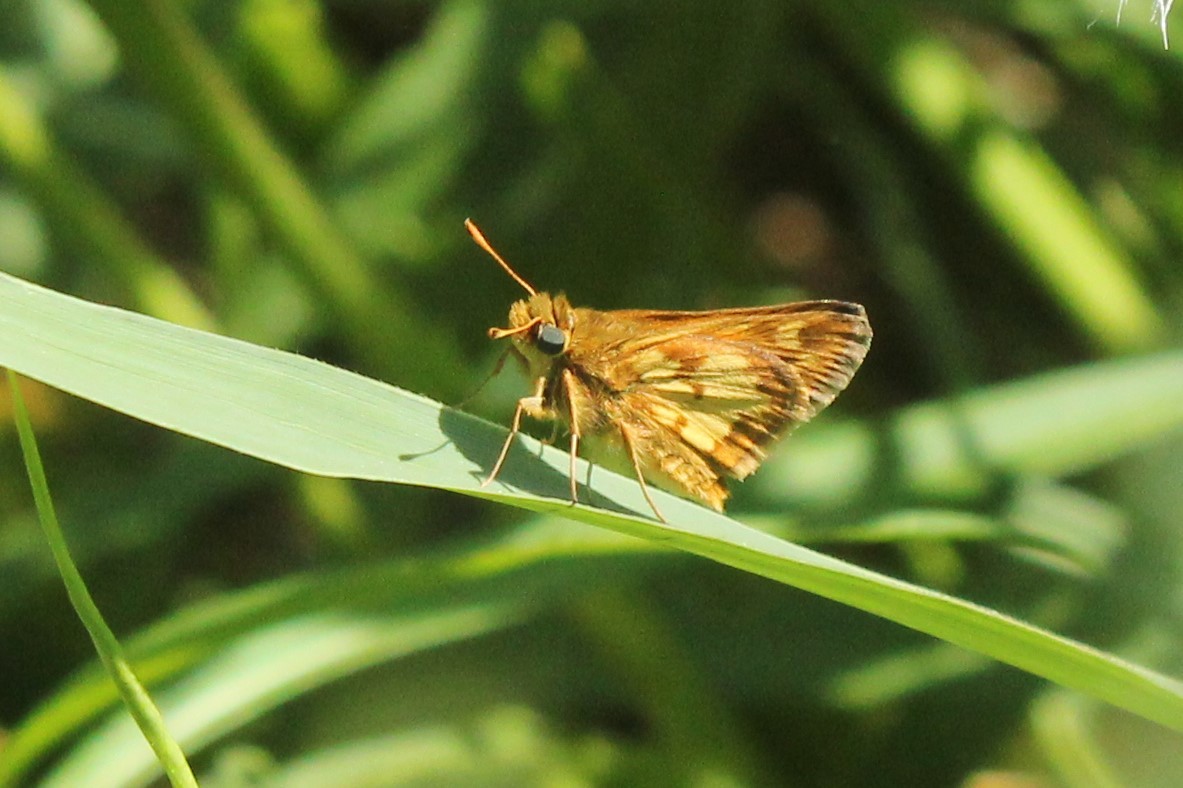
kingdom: Animalia
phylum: Arthropoda
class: Insecta
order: Lepidoptera
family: Hesperiidae
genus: Polites
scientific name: Polites coras
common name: Peck's skipper
